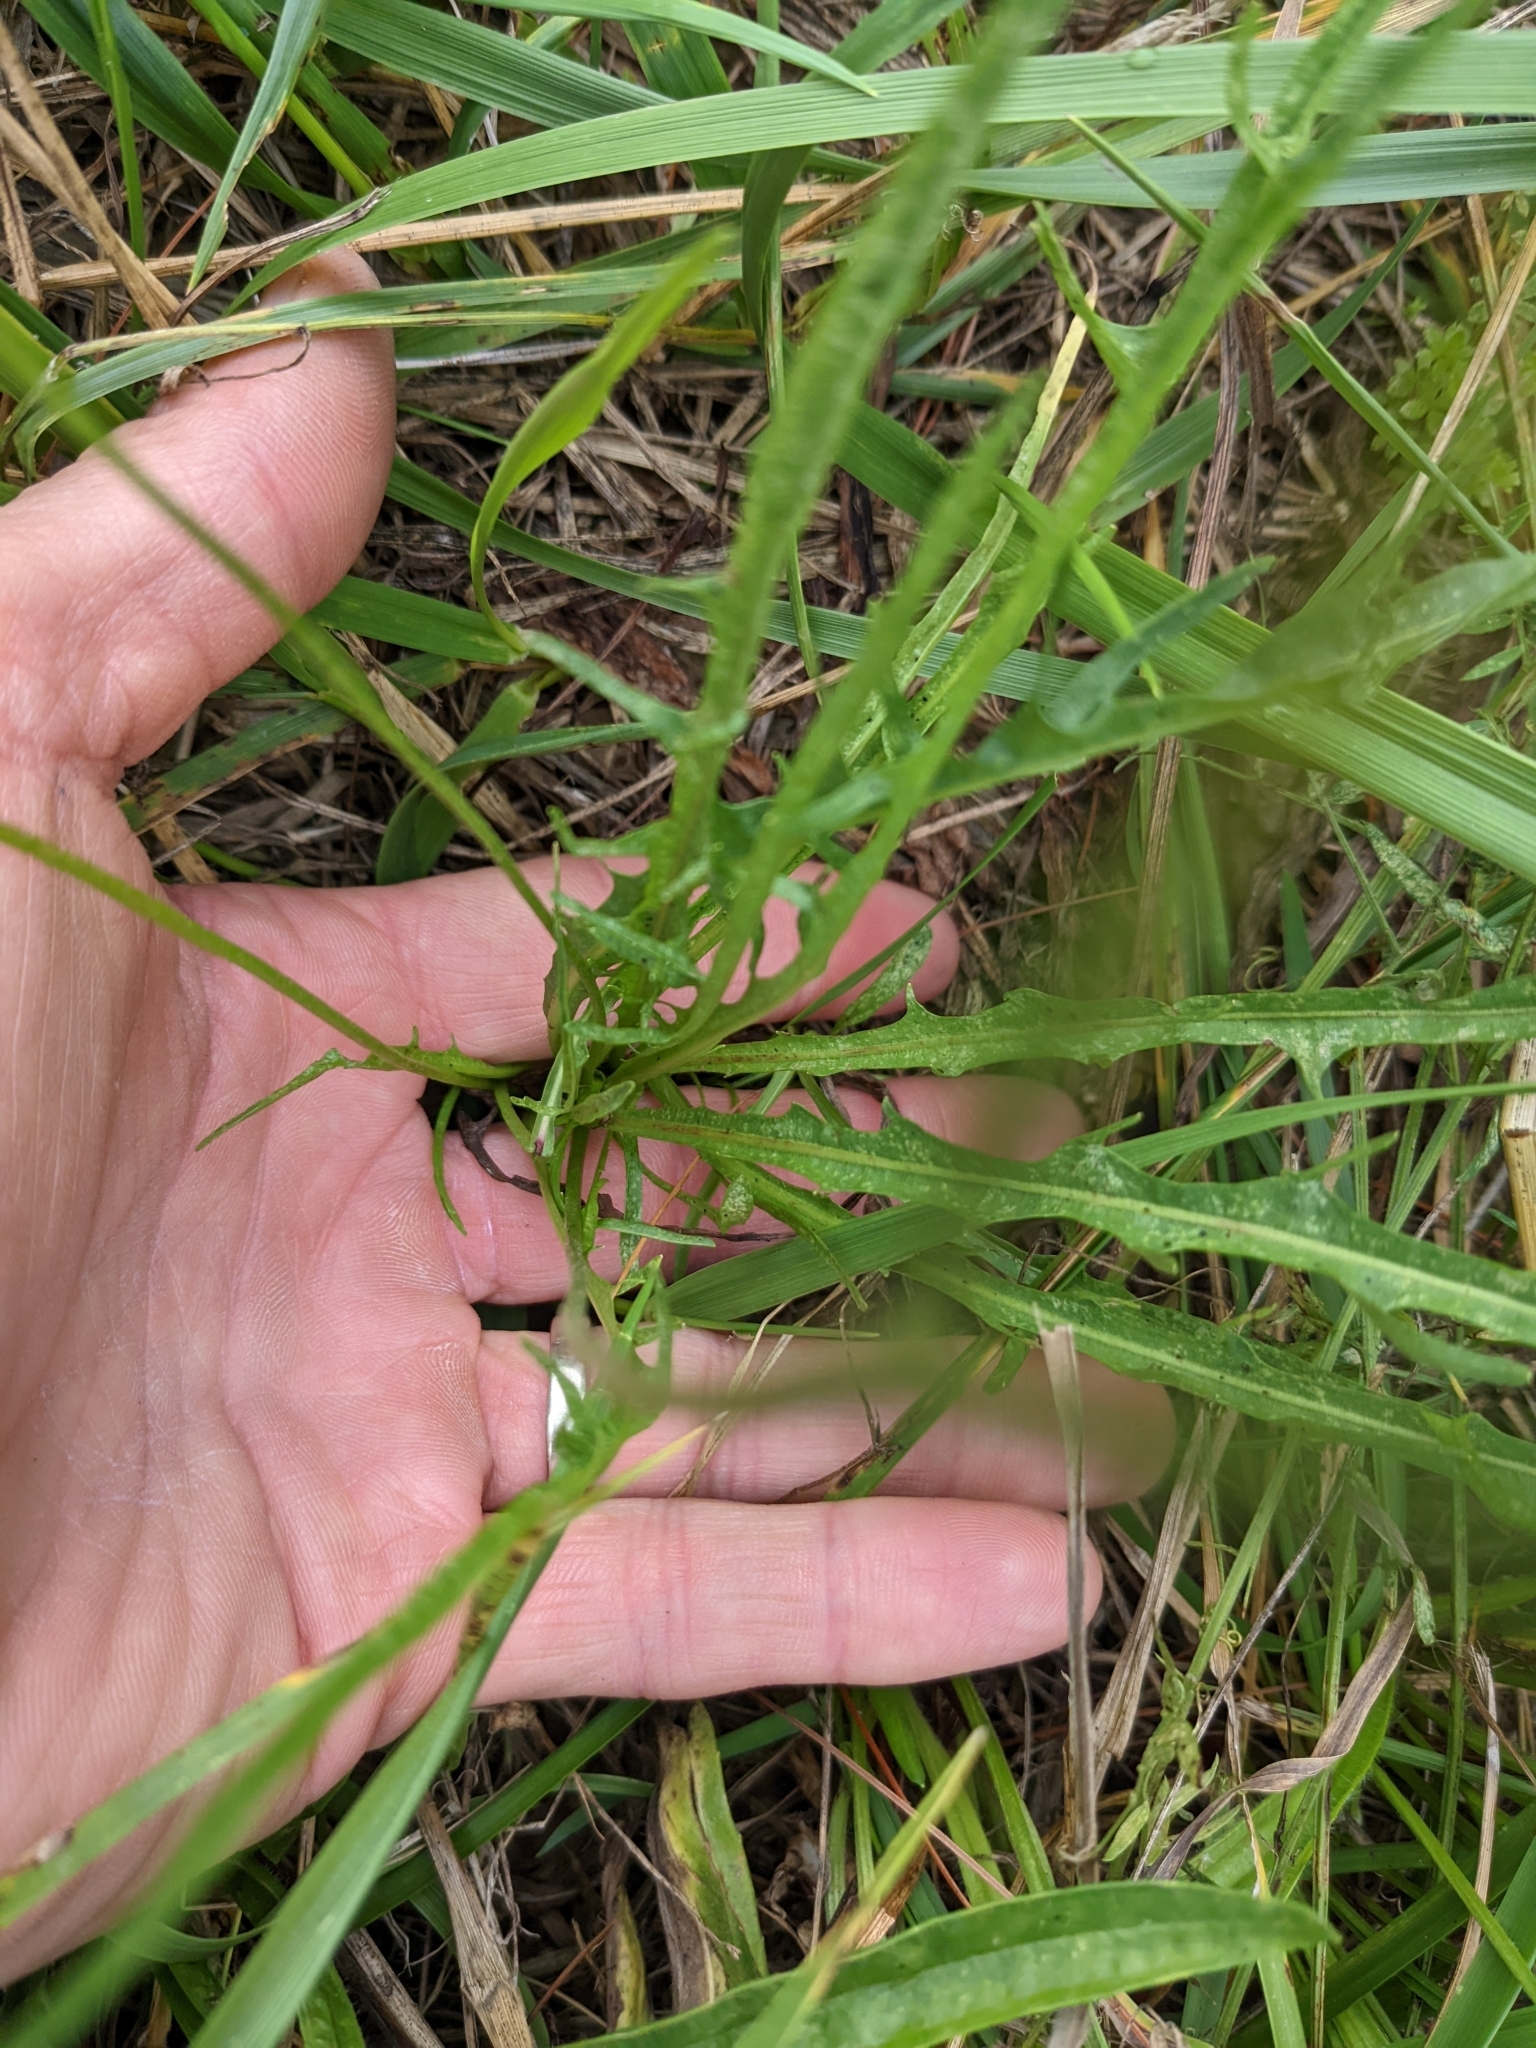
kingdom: Plantae
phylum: Tracheophyta
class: Magnoliopsida
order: Asterales
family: Asteraceae
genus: Scorzoneroides
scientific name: Scorzoneroides autumnalis
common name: Autumn hawkbit
